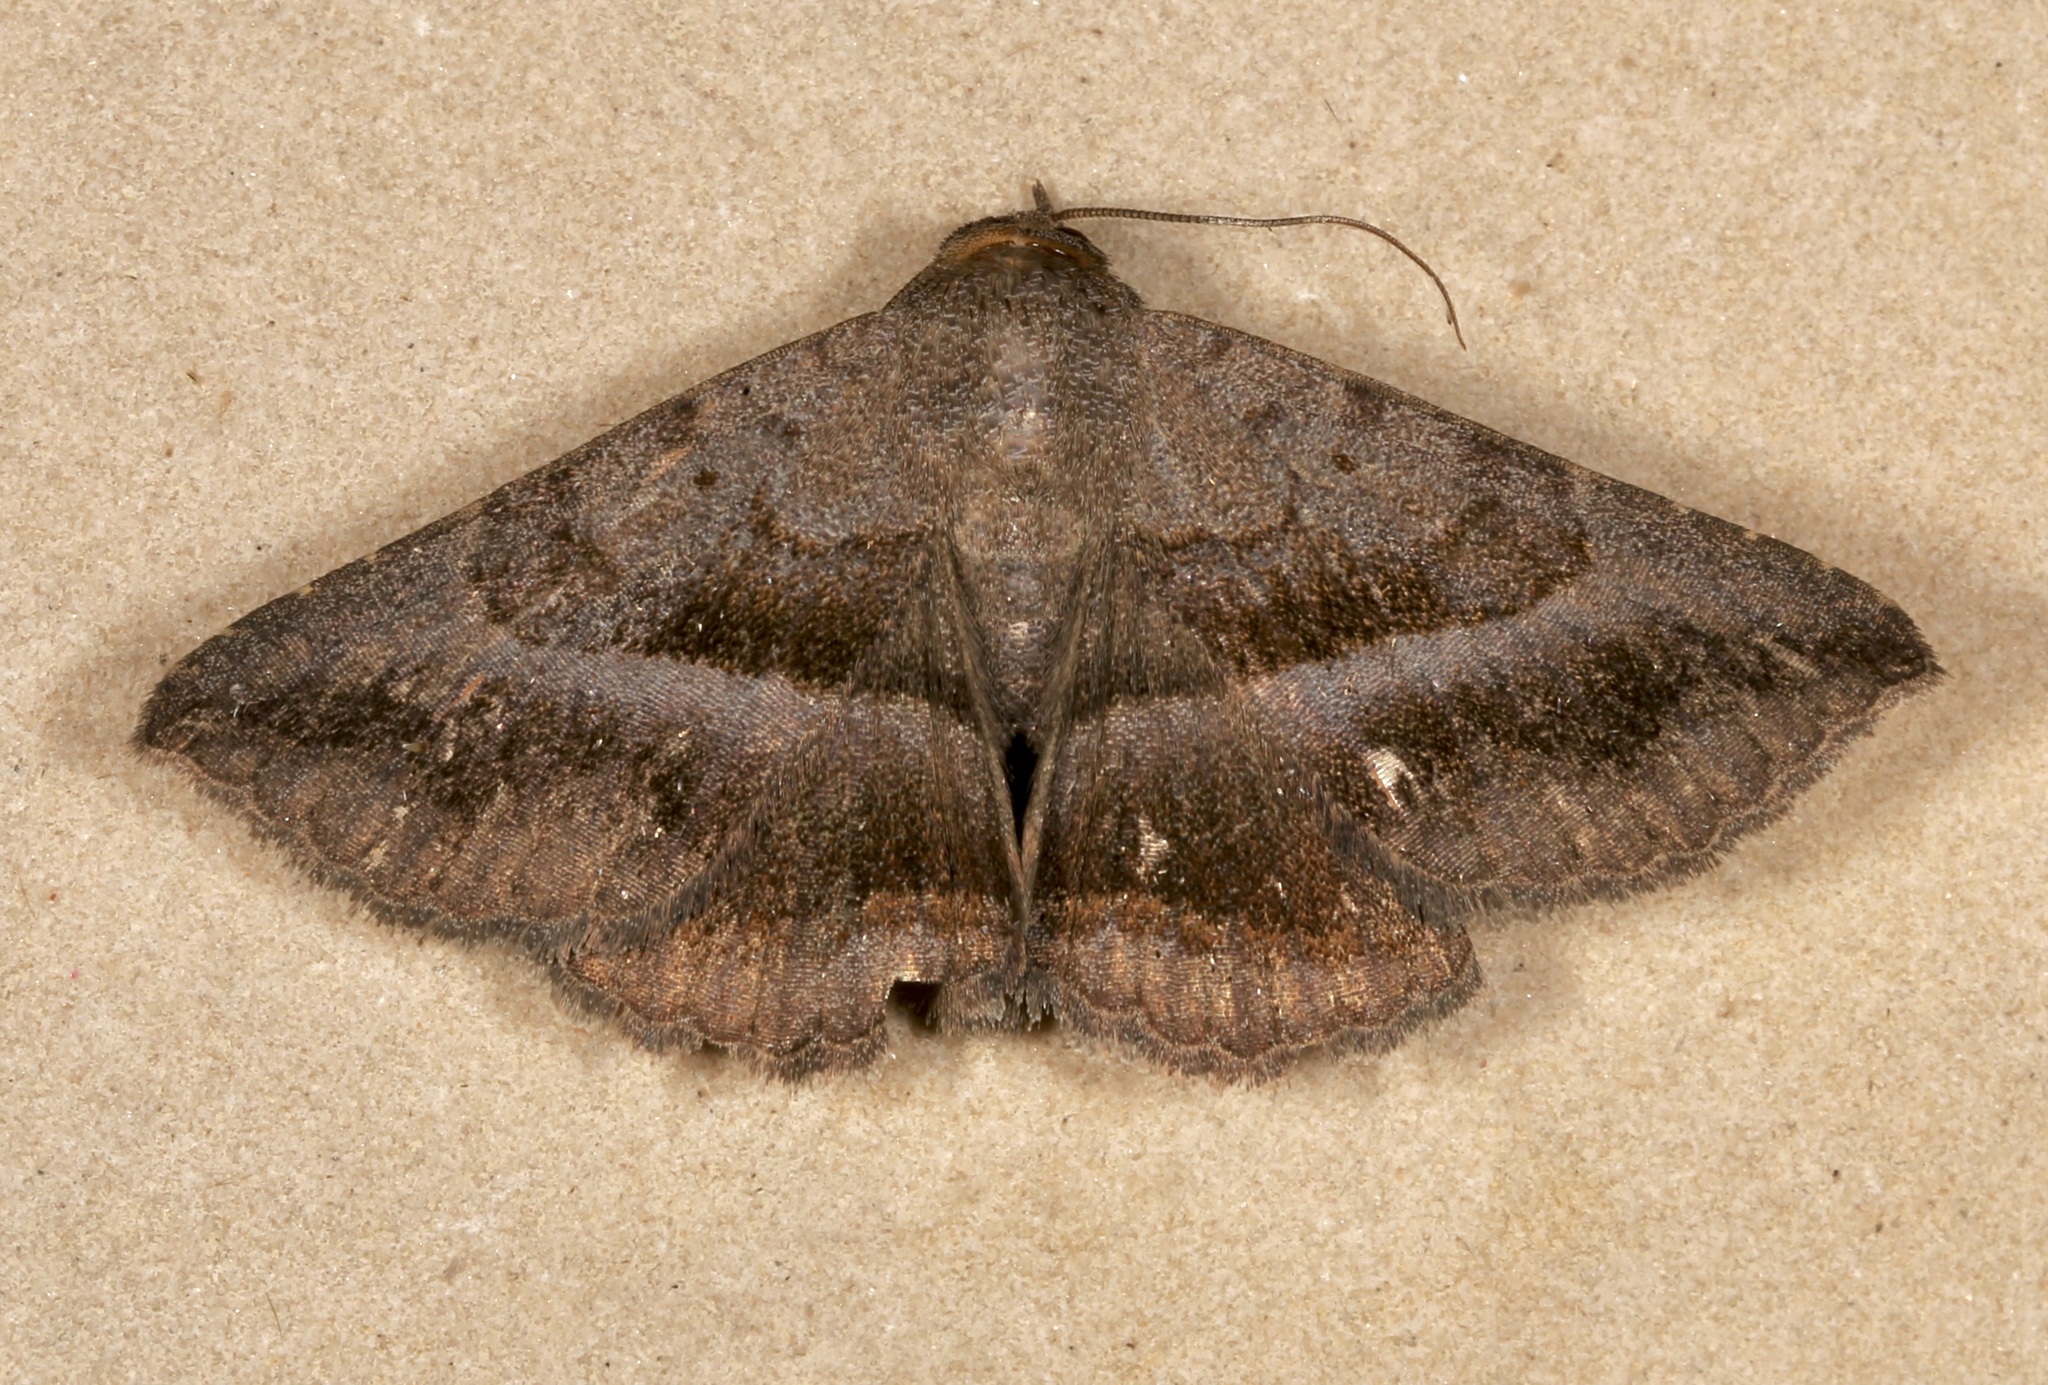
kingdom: Animalia
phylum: Arthropoda
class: Insecta
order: Lepidoptera
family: Erebidae
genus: Lesmone
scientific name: Lesmone griseipennis
